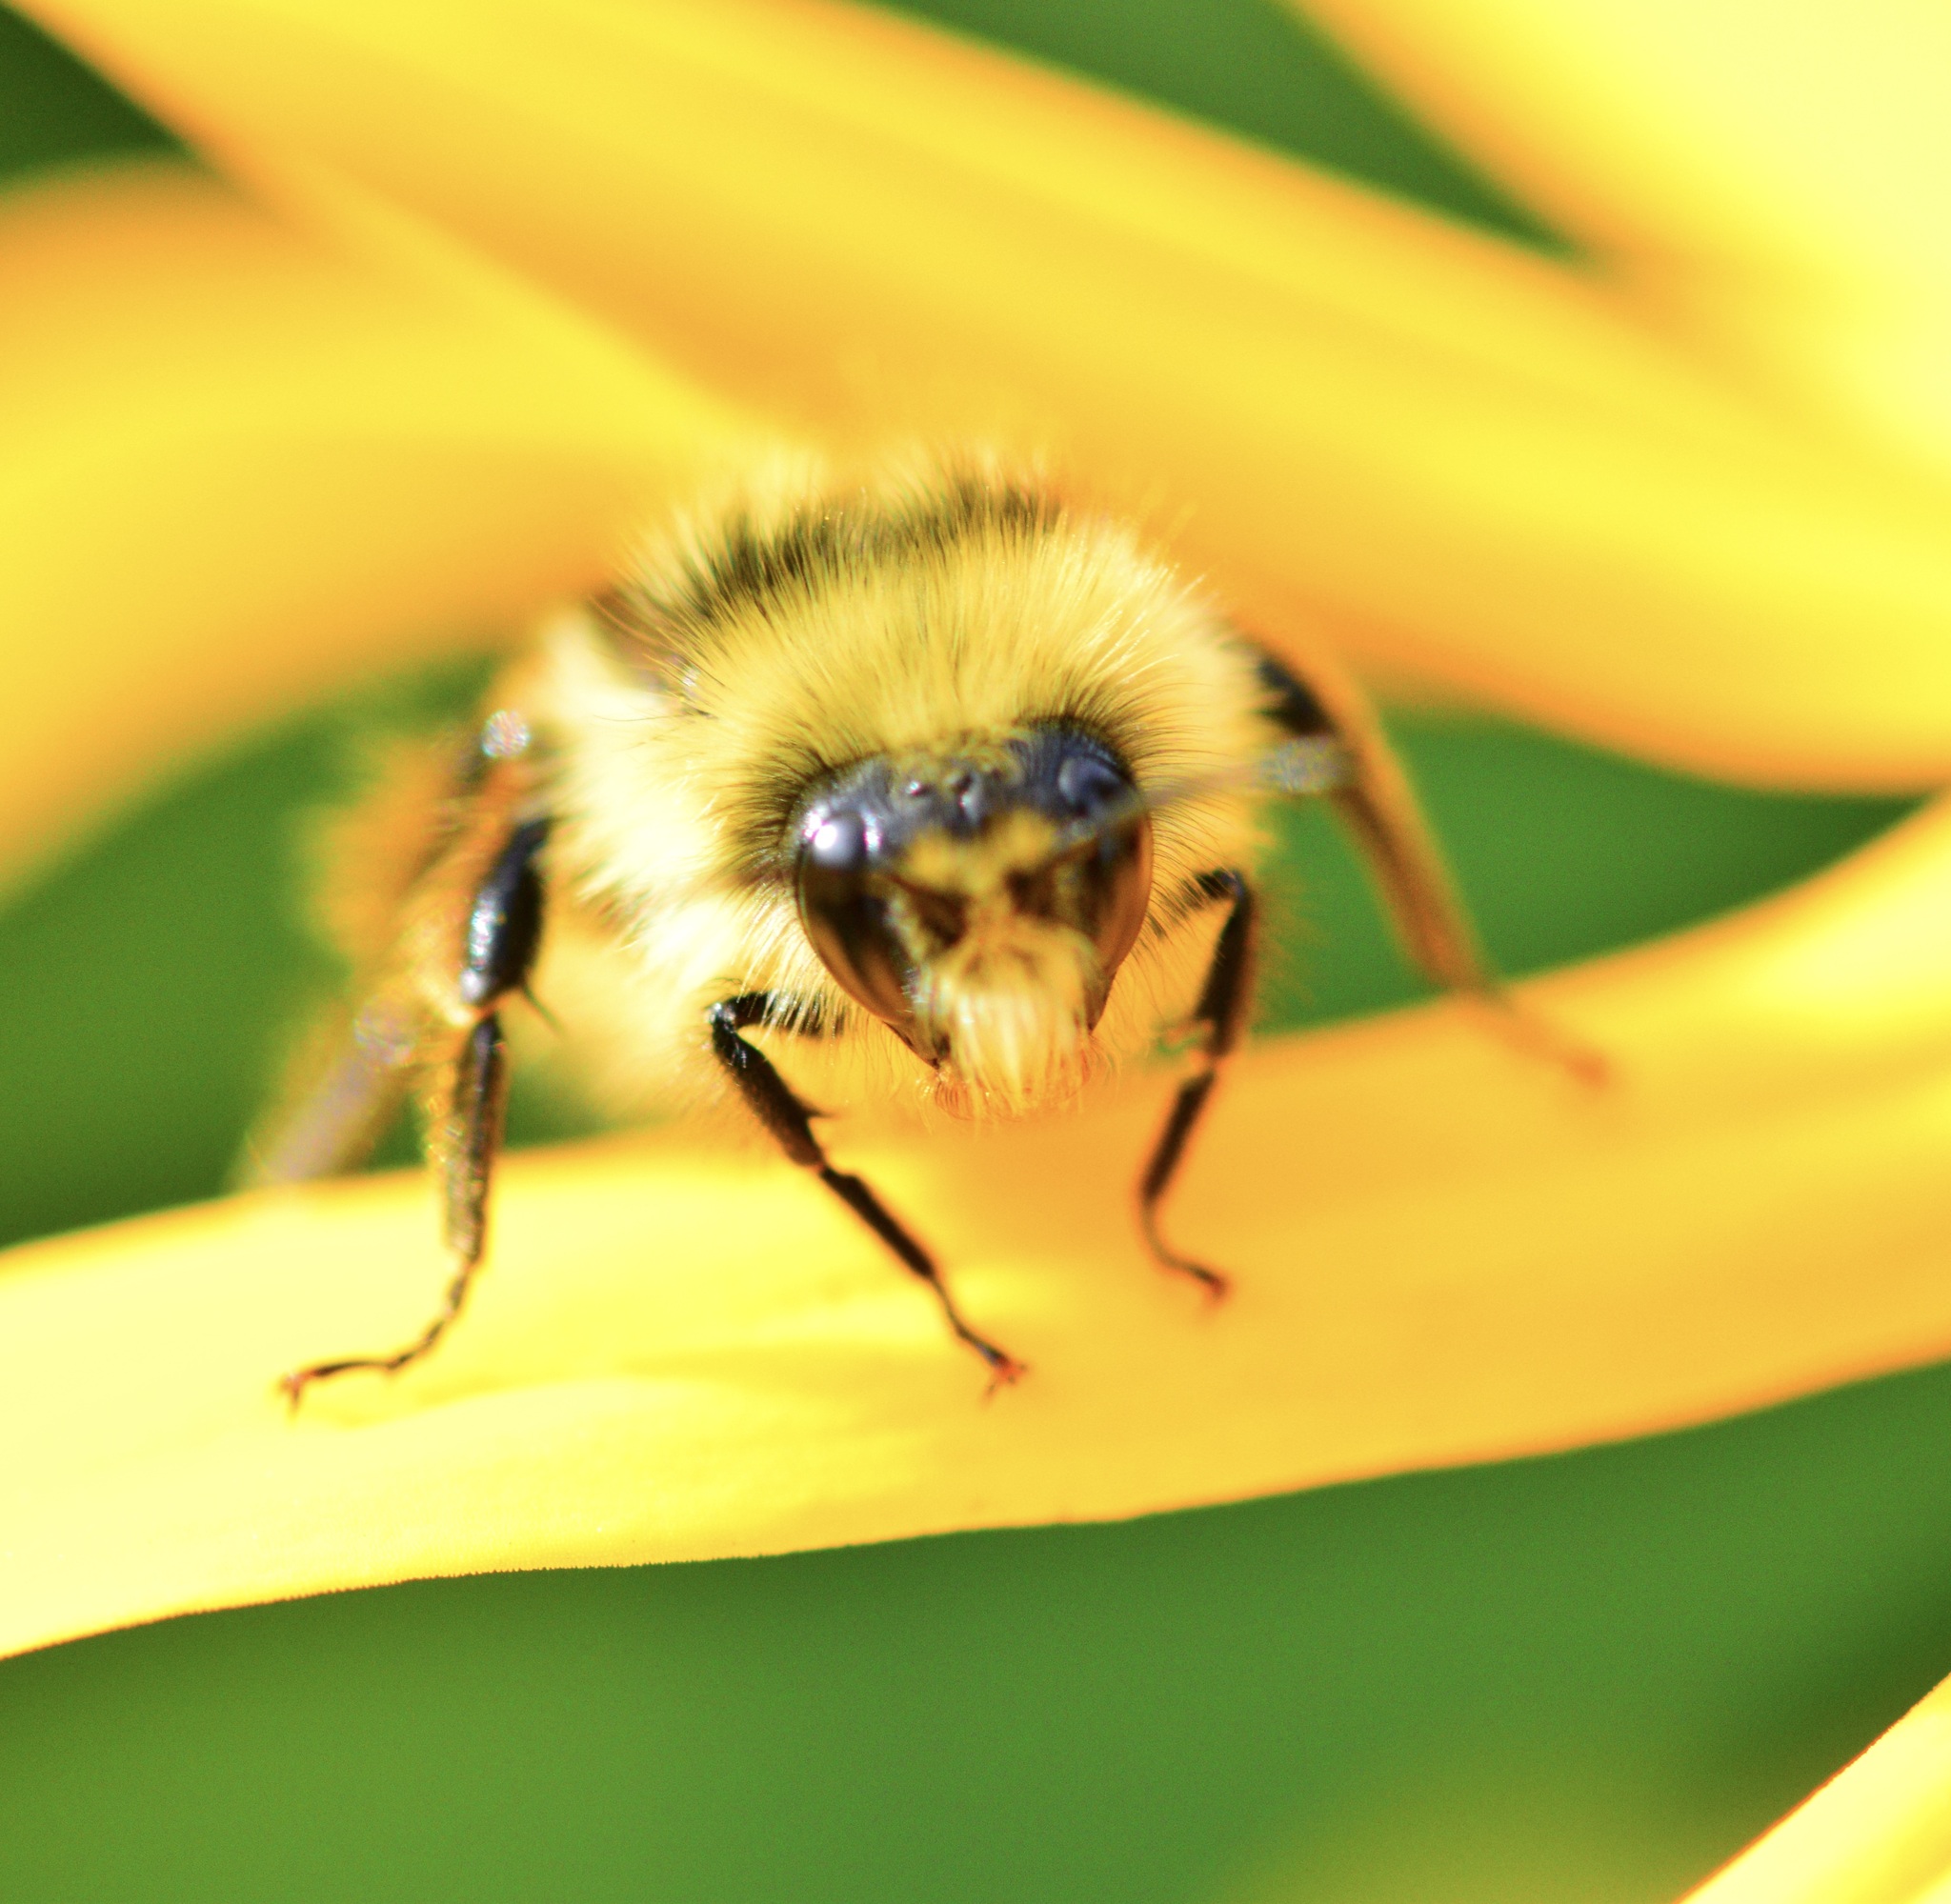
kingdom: Animalia
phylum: Arthropoda
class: Insecta
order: Hymenoptera
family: Apidae
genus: Bombus
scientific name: Bombus ternarius
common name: Tri-colored bumble bee
